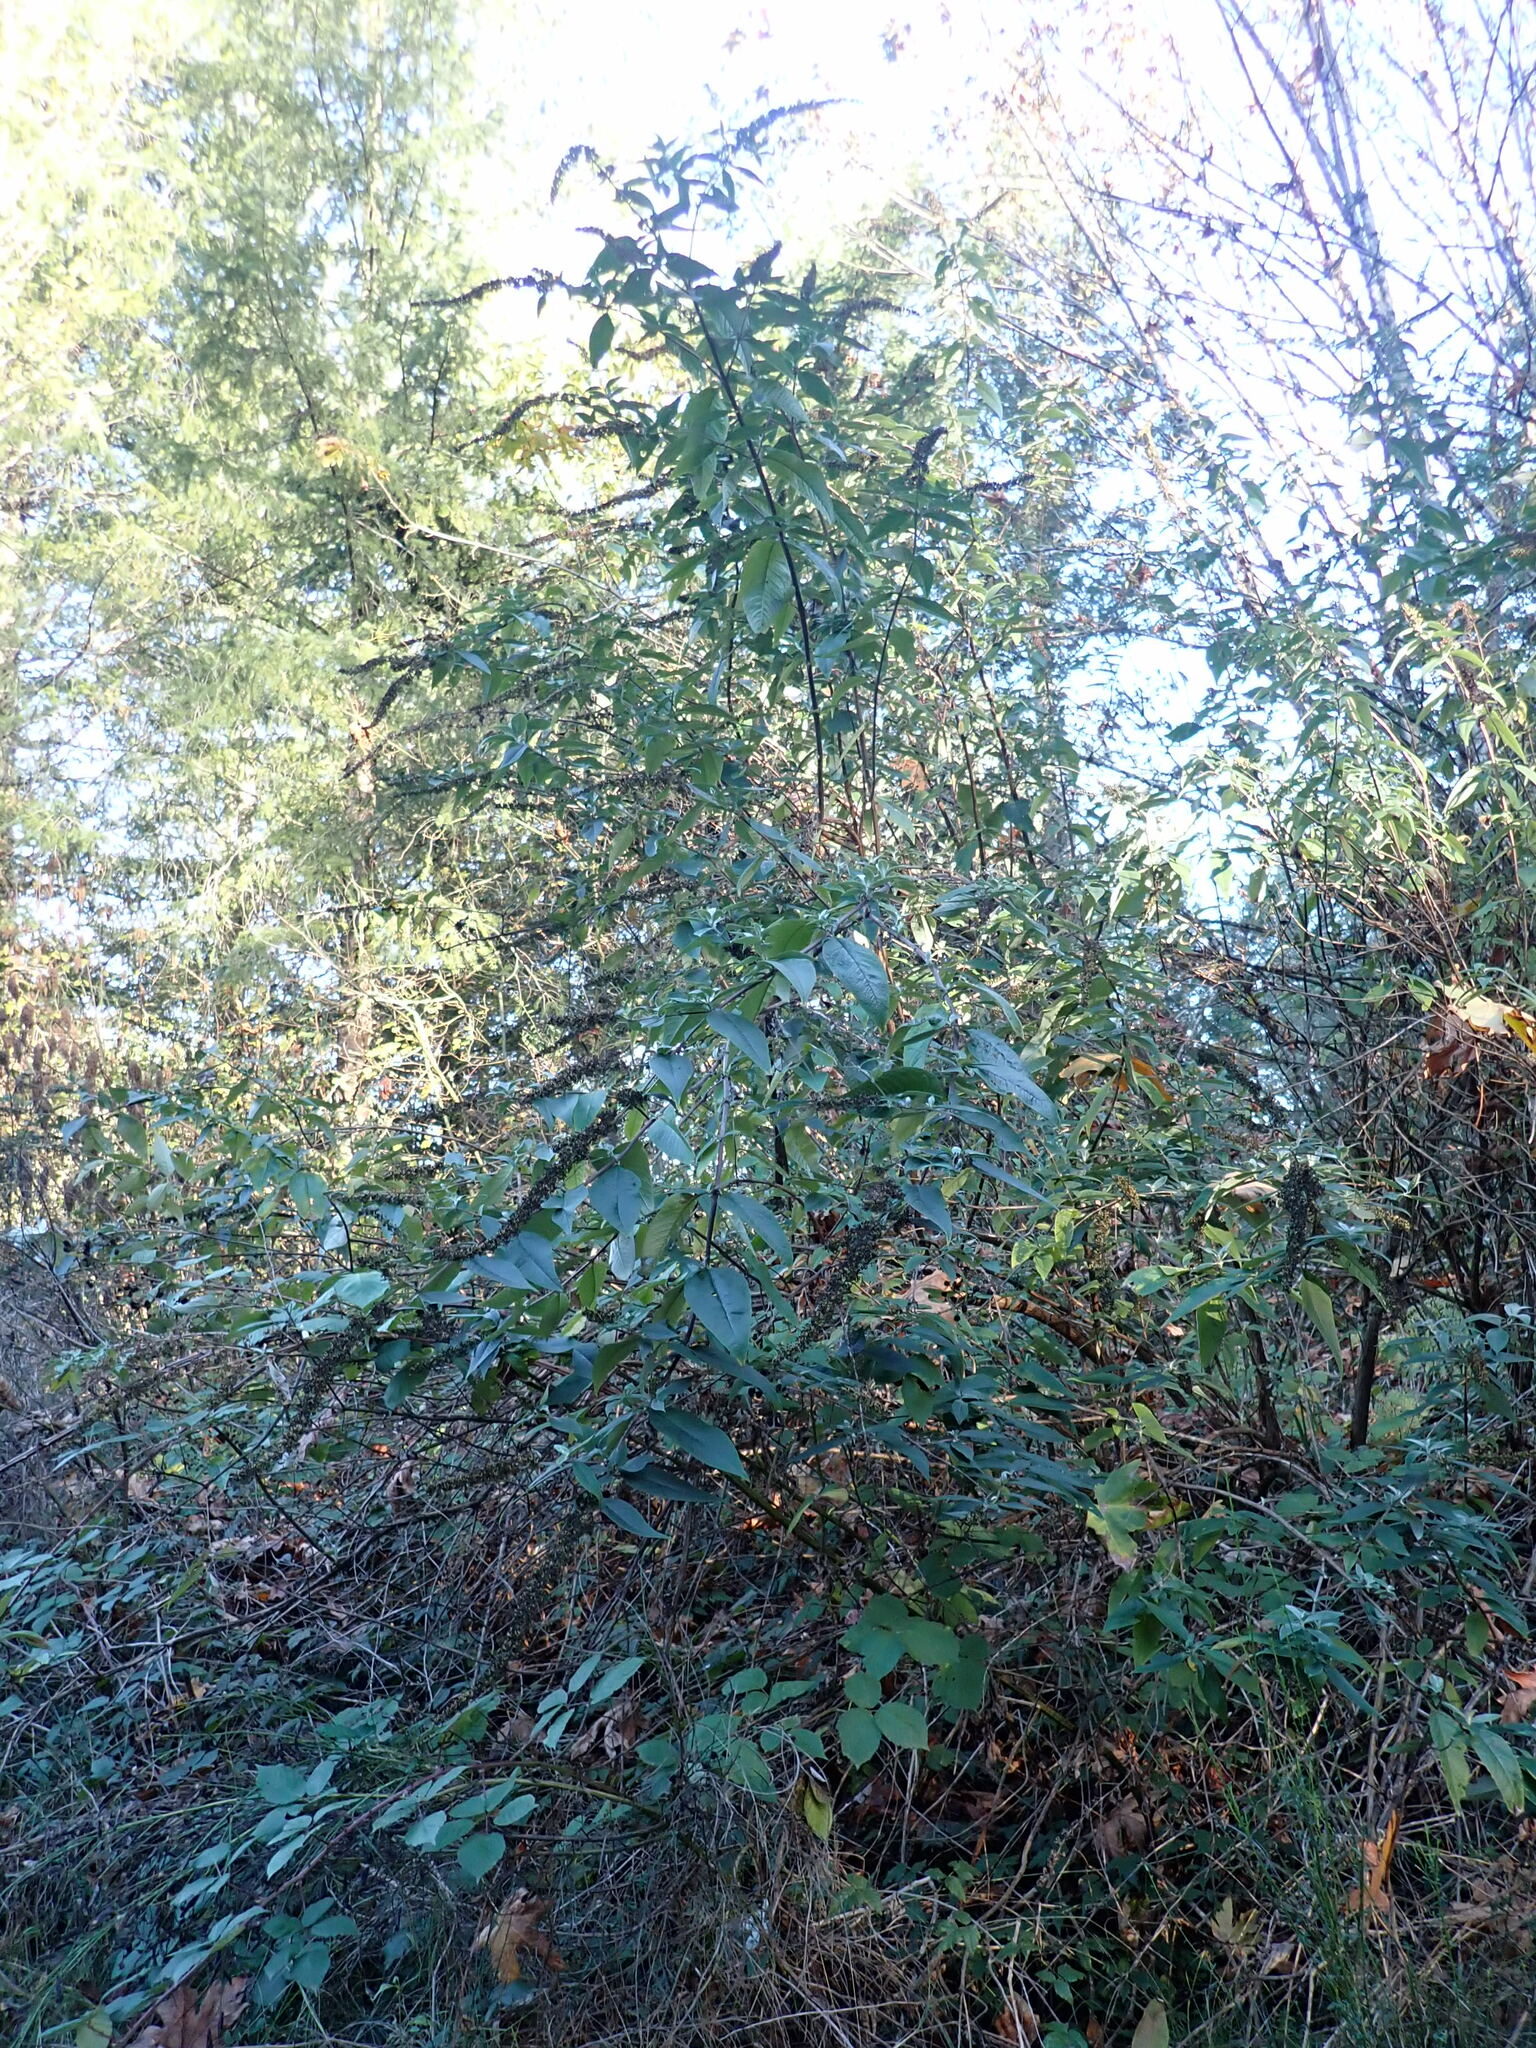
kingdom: Plantae
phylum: Tracheophyta
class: Magnoliopsida
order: Lamiales
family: Scrophulariaceae
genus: Buddleja
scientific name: Buddleja davidii
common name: Butterfly-bush
